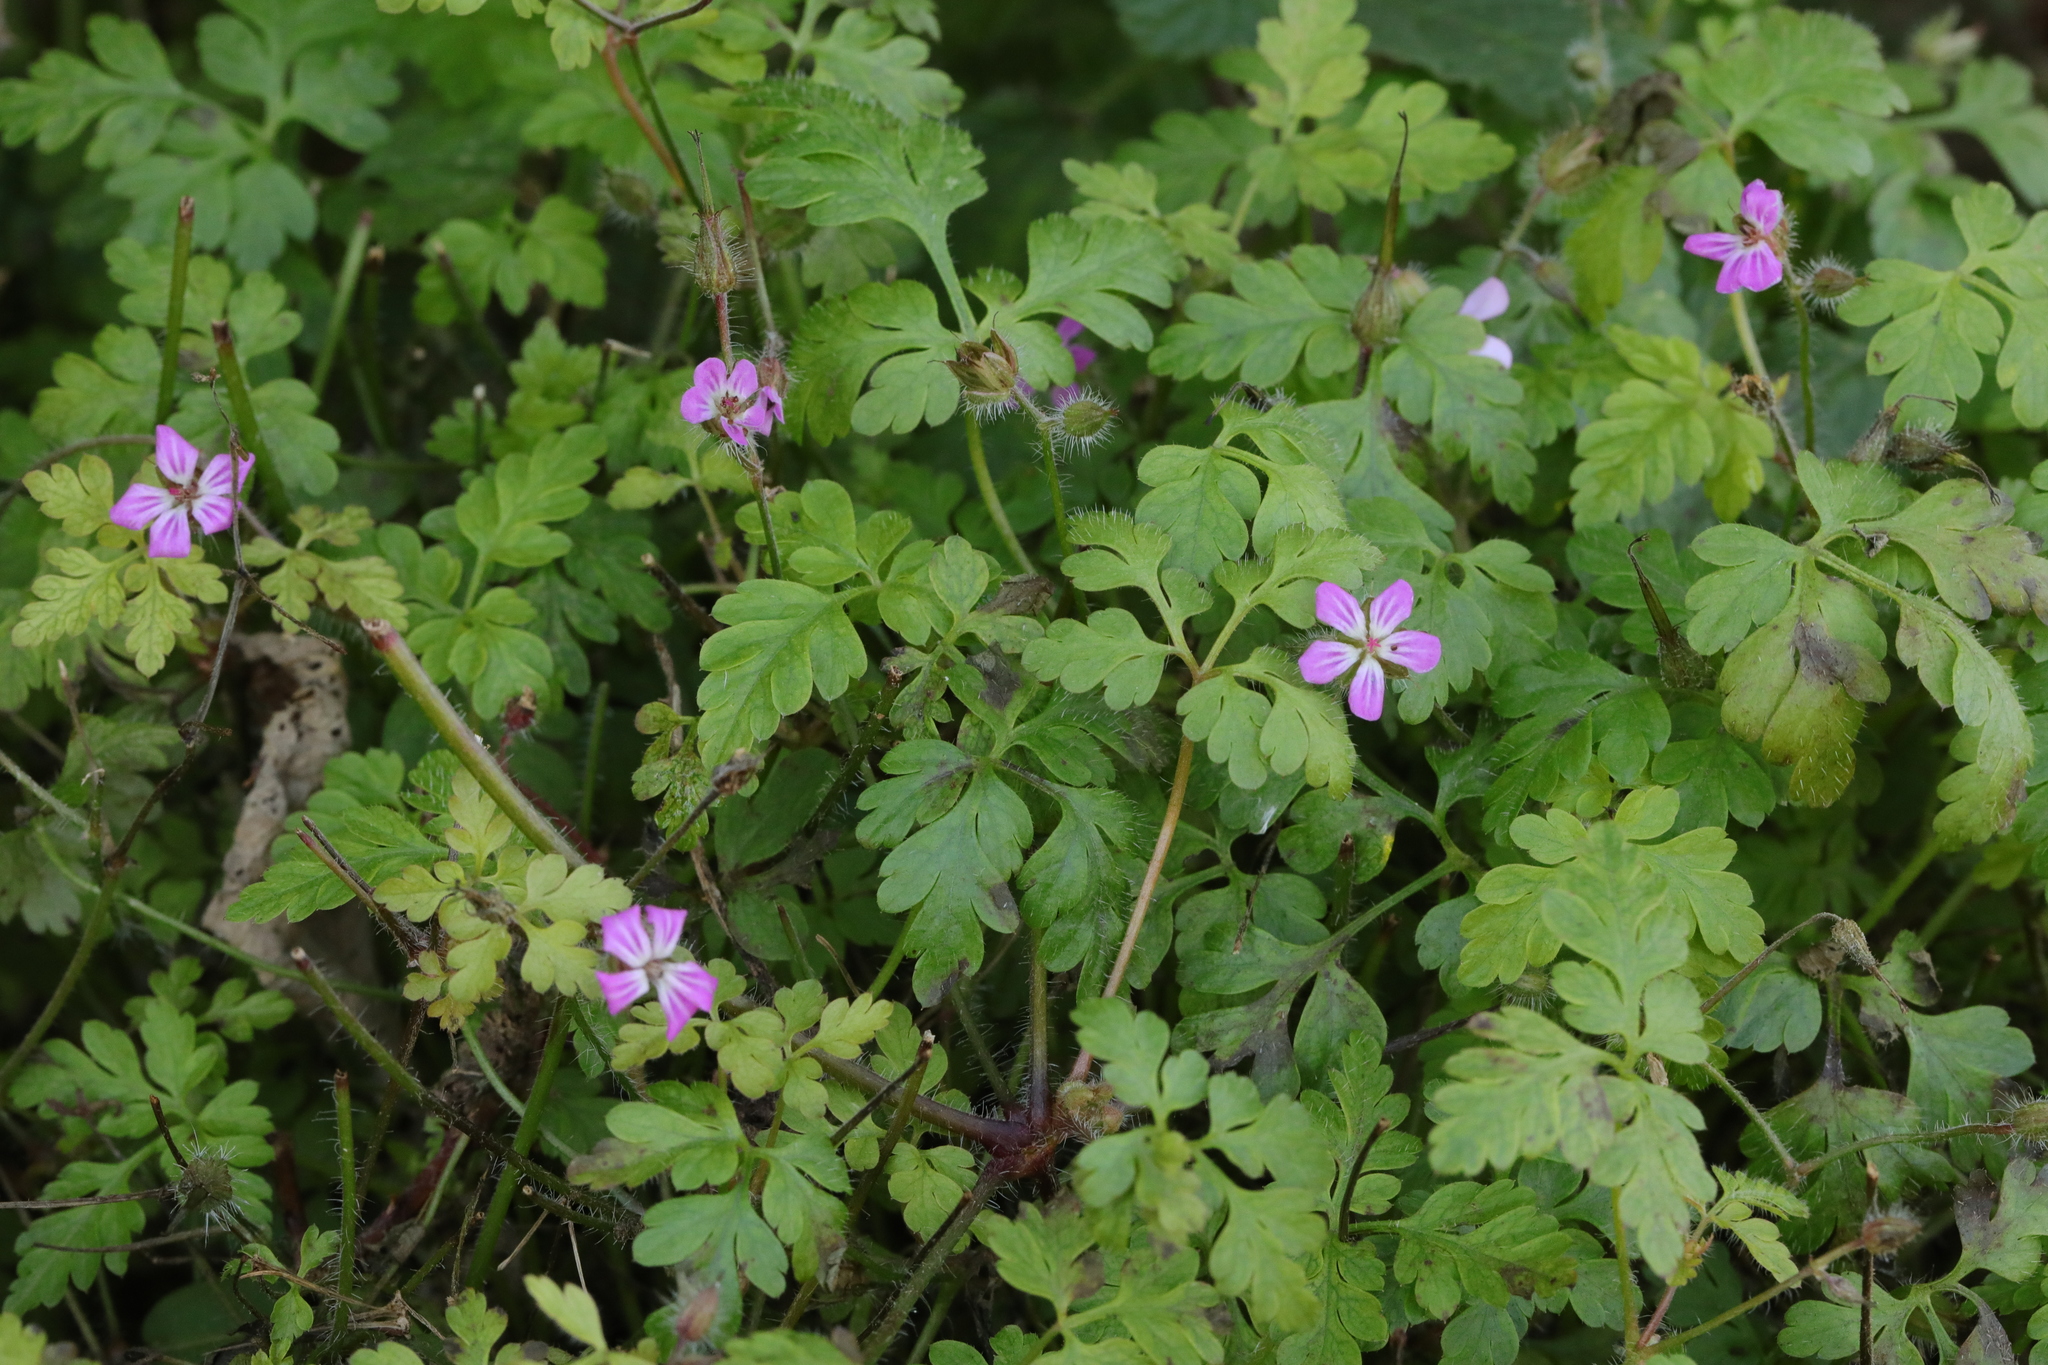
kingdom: Plantae
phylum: Tracheophyta
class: Magnoliopsida
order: Geraniales
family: Geraniaceae
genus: Geranium
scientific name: Geranium robertianum
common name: Herb-robert
